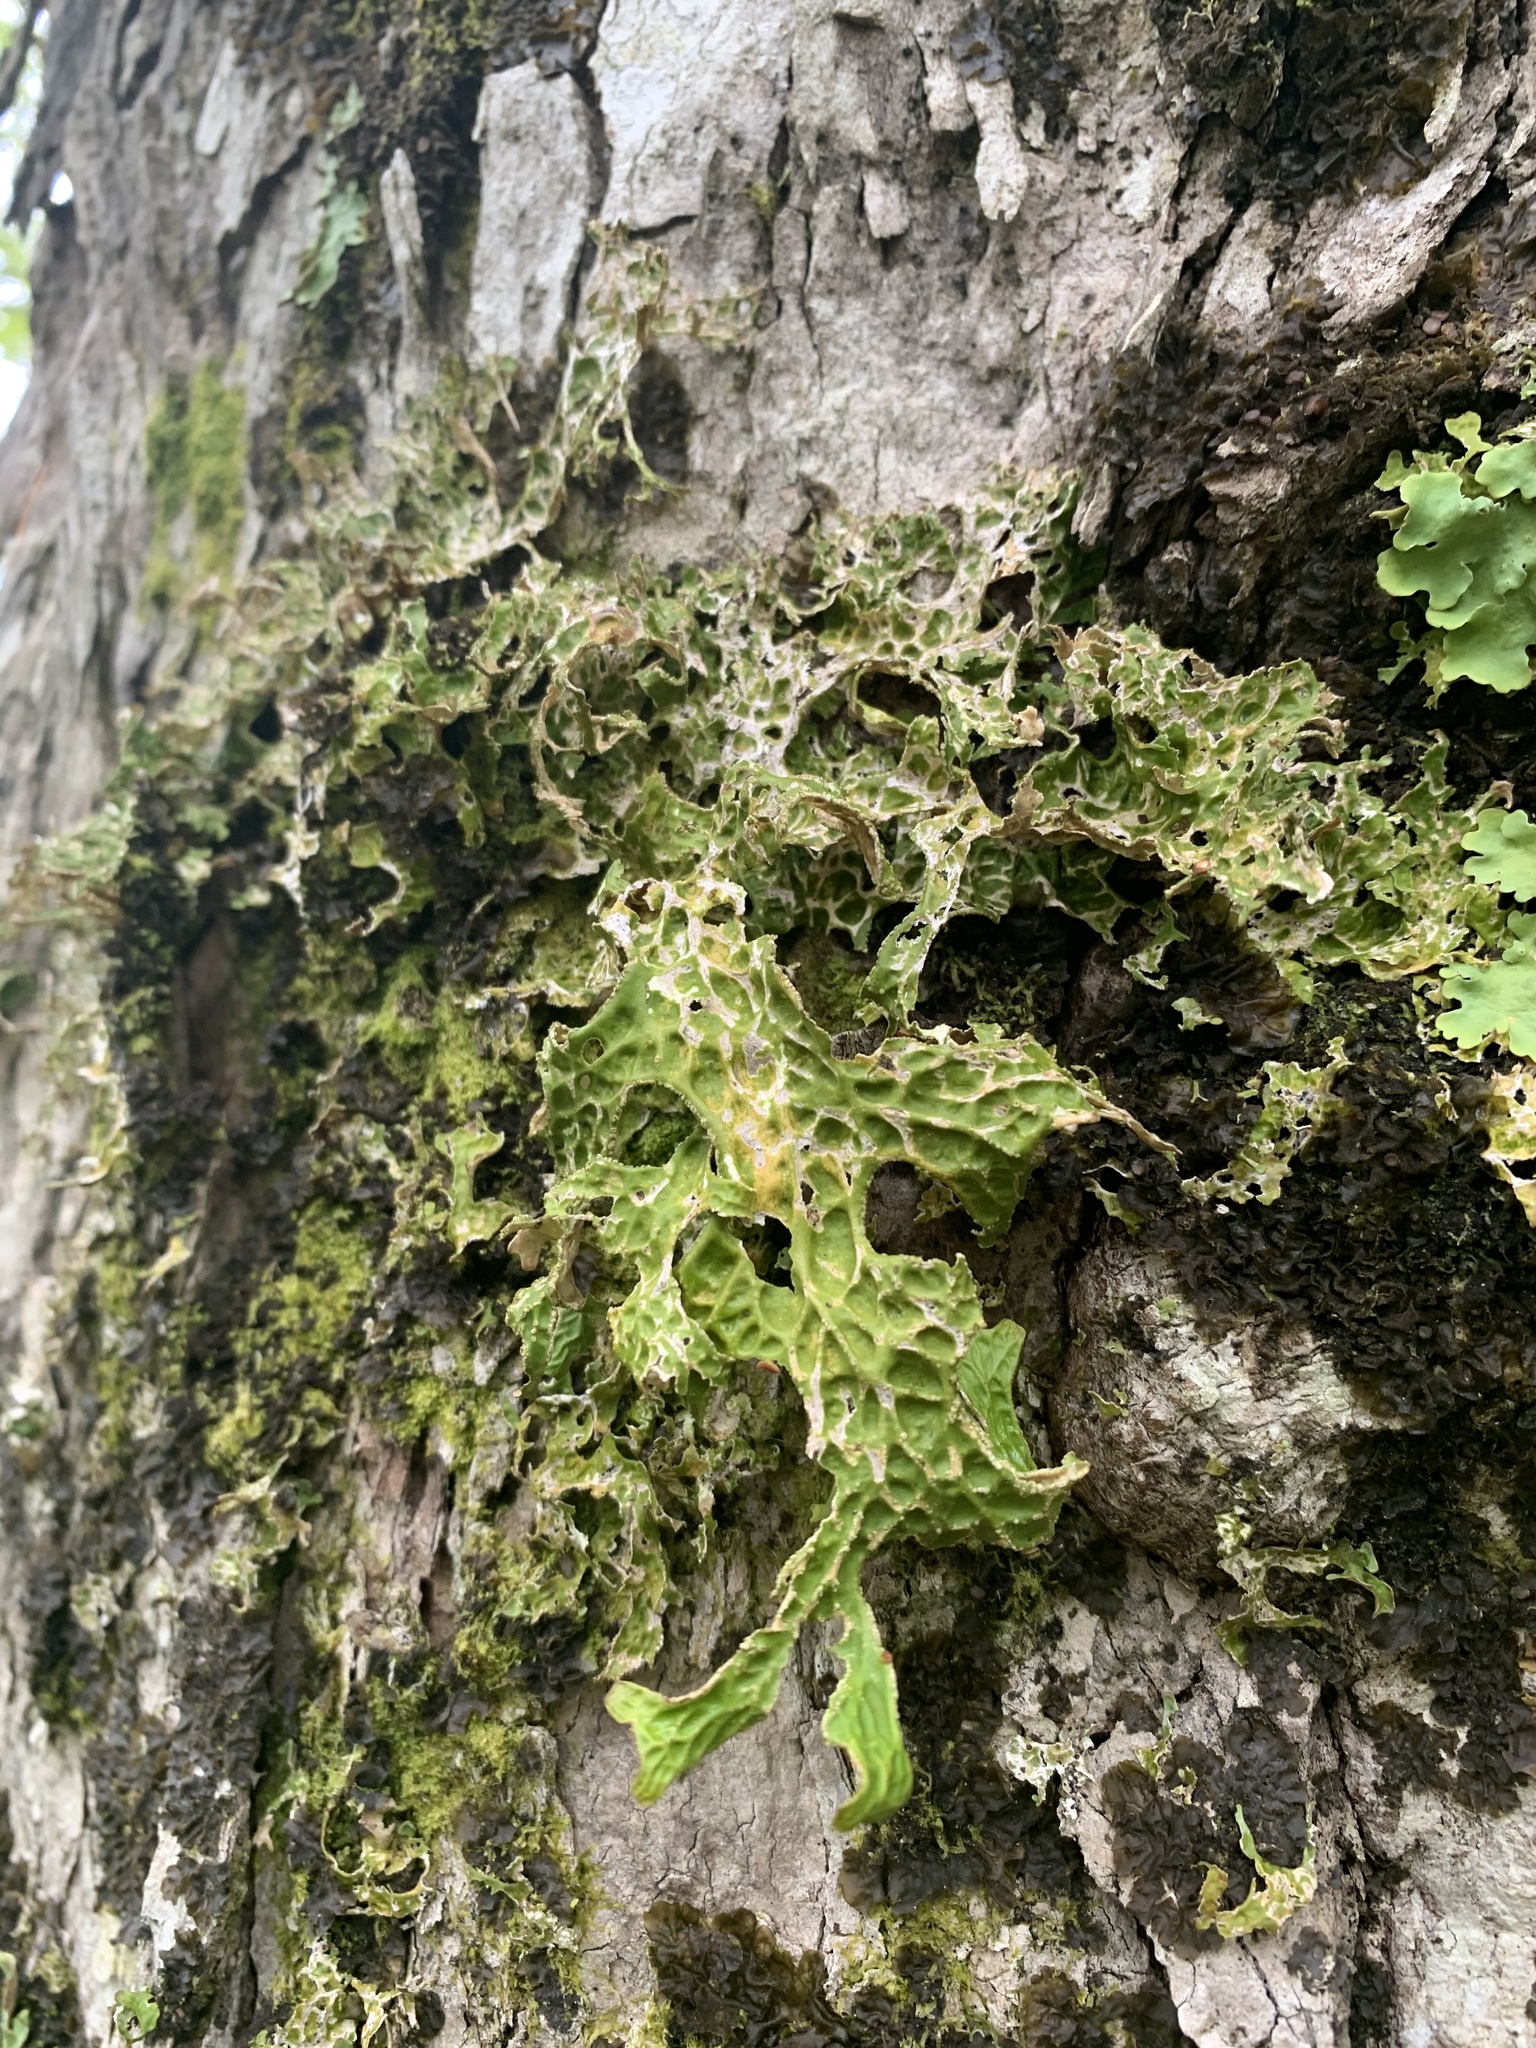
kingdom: Fungi
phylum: Ascomycota
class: Lecanoromycetes
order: Peltigerales
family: Lobariaceae
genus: Lobaria
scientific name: Lobaria pulmonaria
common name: Lungwort
